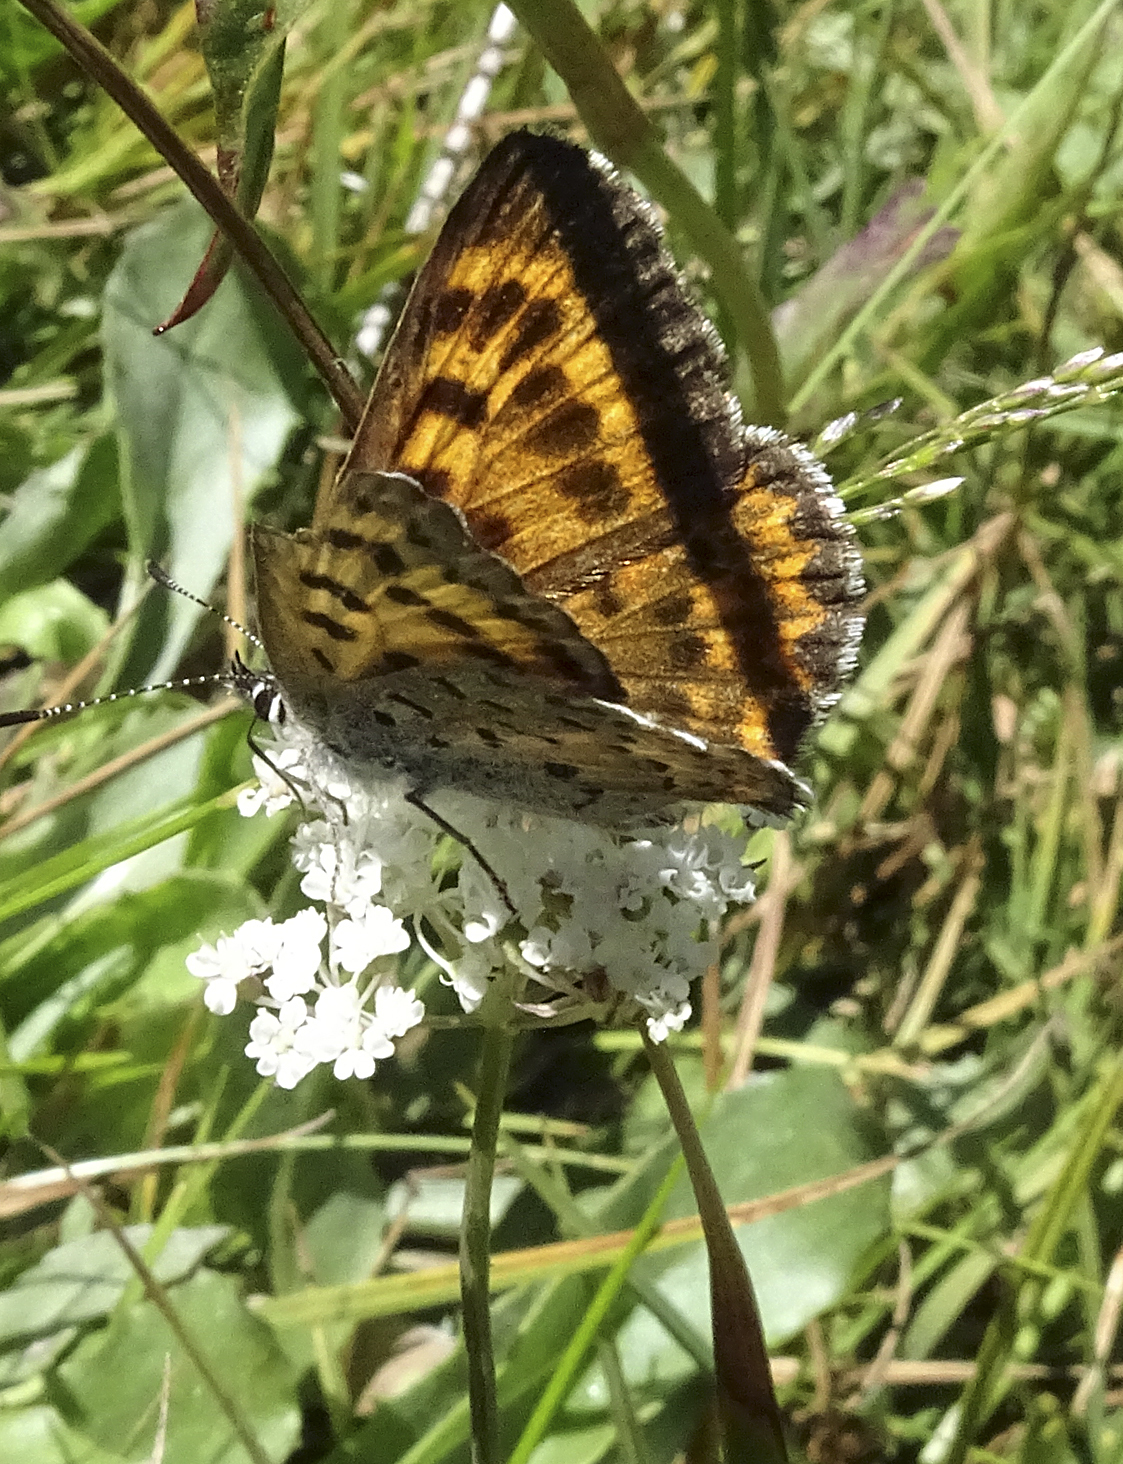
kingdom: Animalia
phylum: Arthropoda
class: Insecta
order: Lepidoptera
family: Lycaenidae
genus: Tharsalea
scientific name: Tharsalea mariposa
